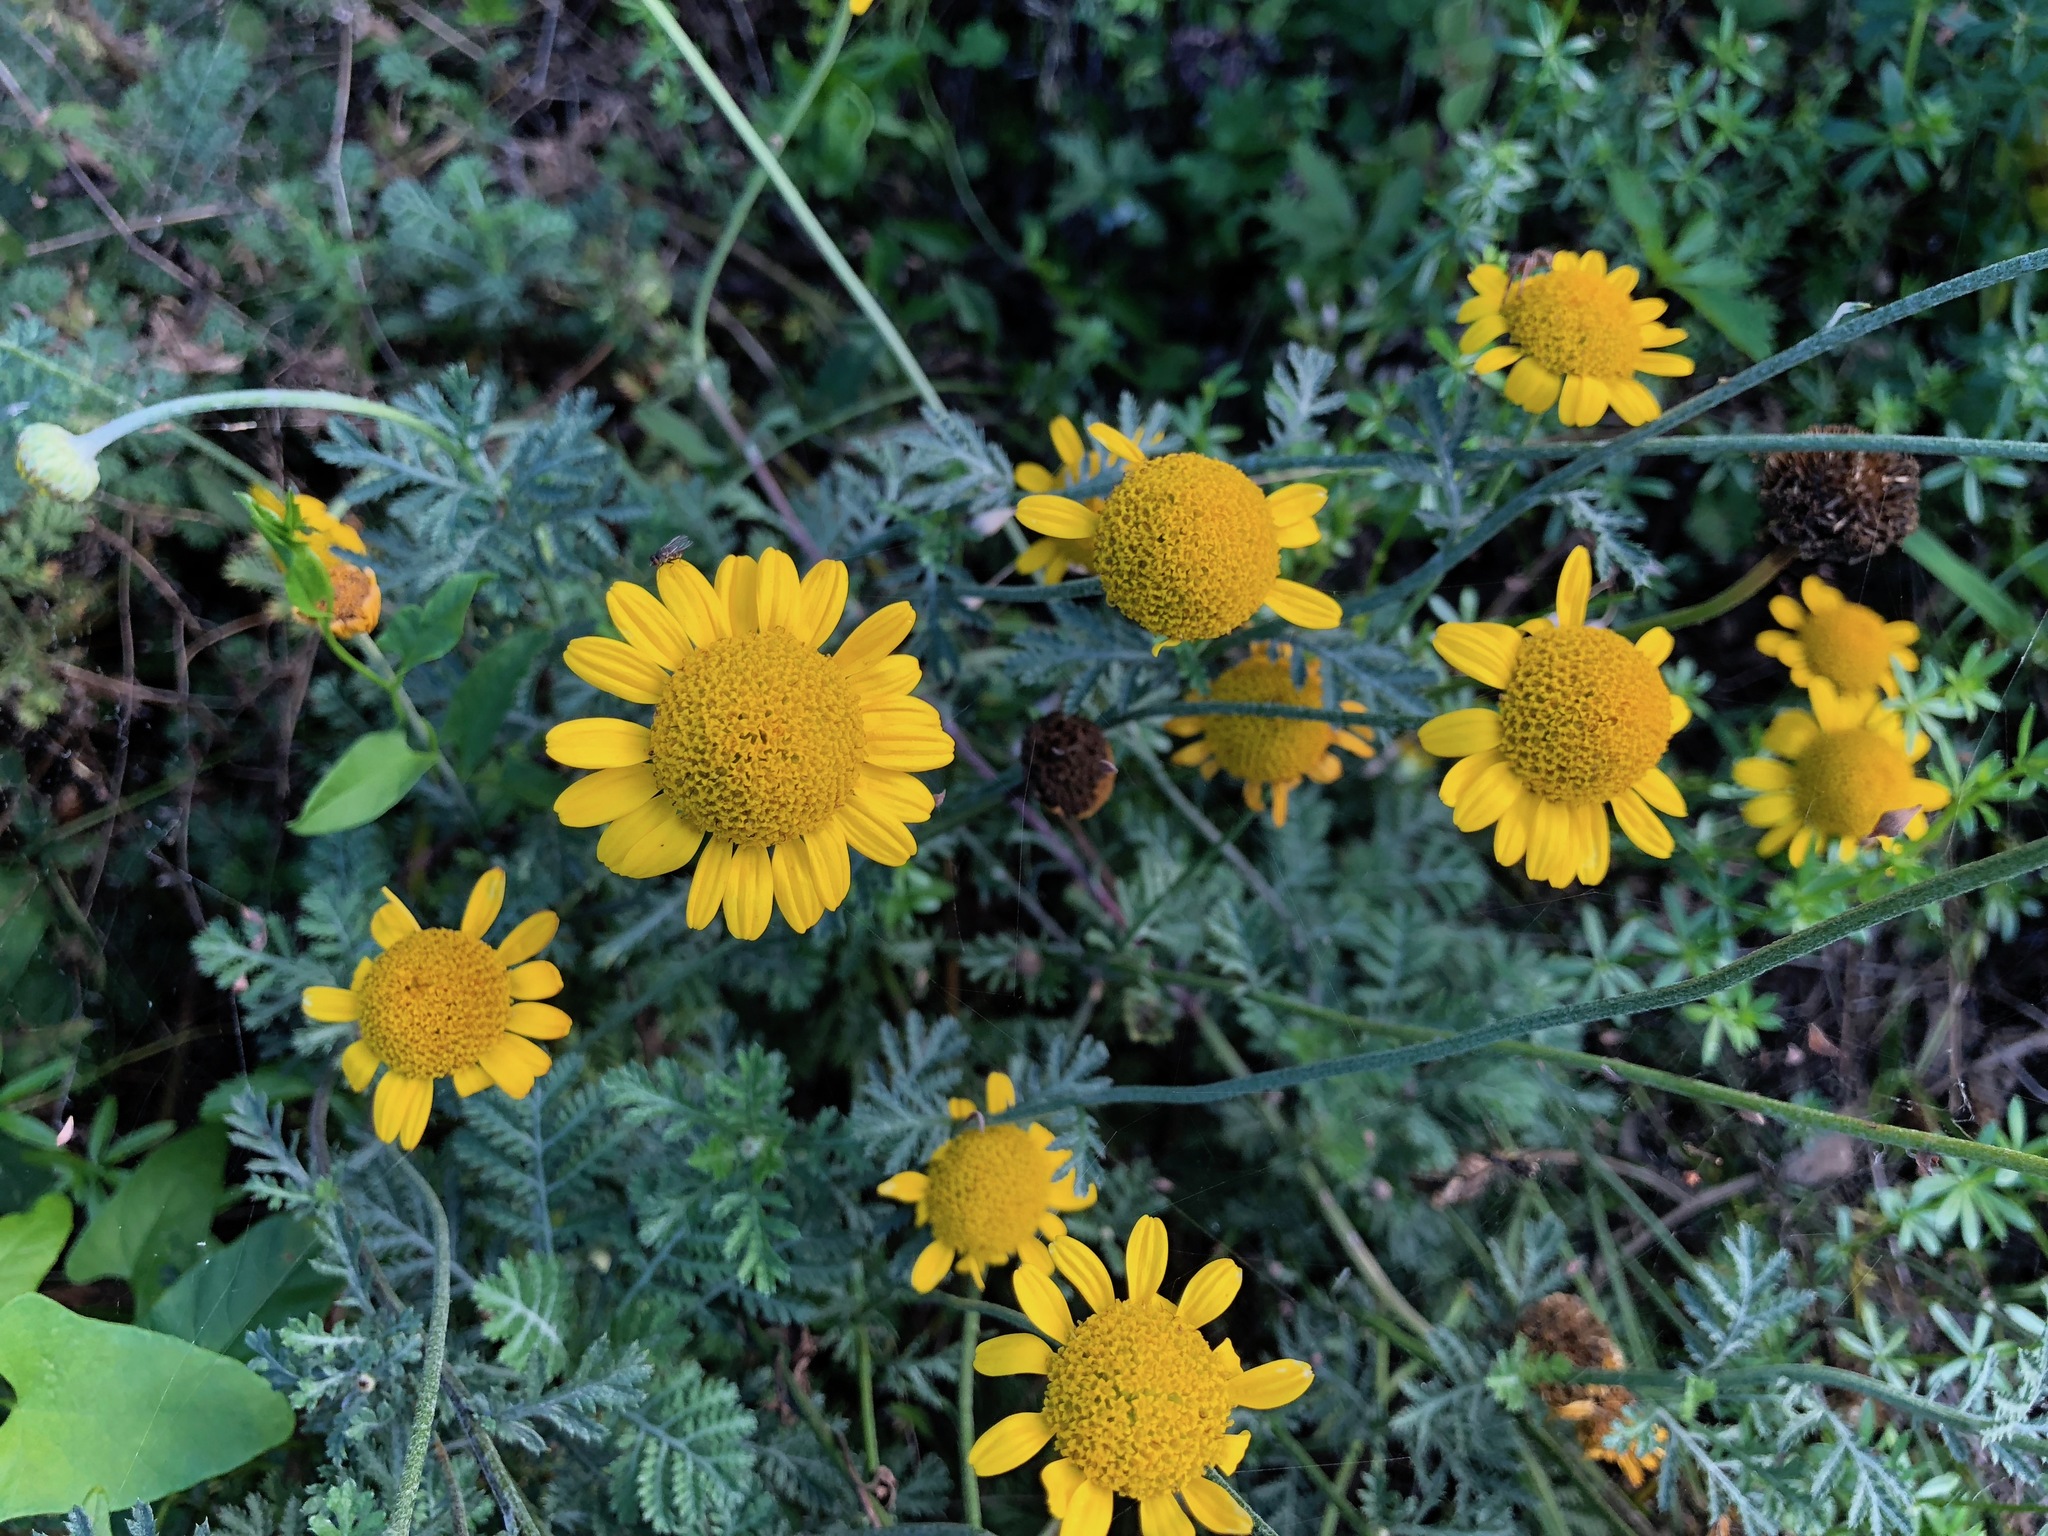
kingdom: Plantae
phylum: Tracheophyta
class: Magnoliopsida
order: Asterales
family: Asteraceae
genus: Cota
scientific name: Cota tinctoria
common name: Golden chamomile
